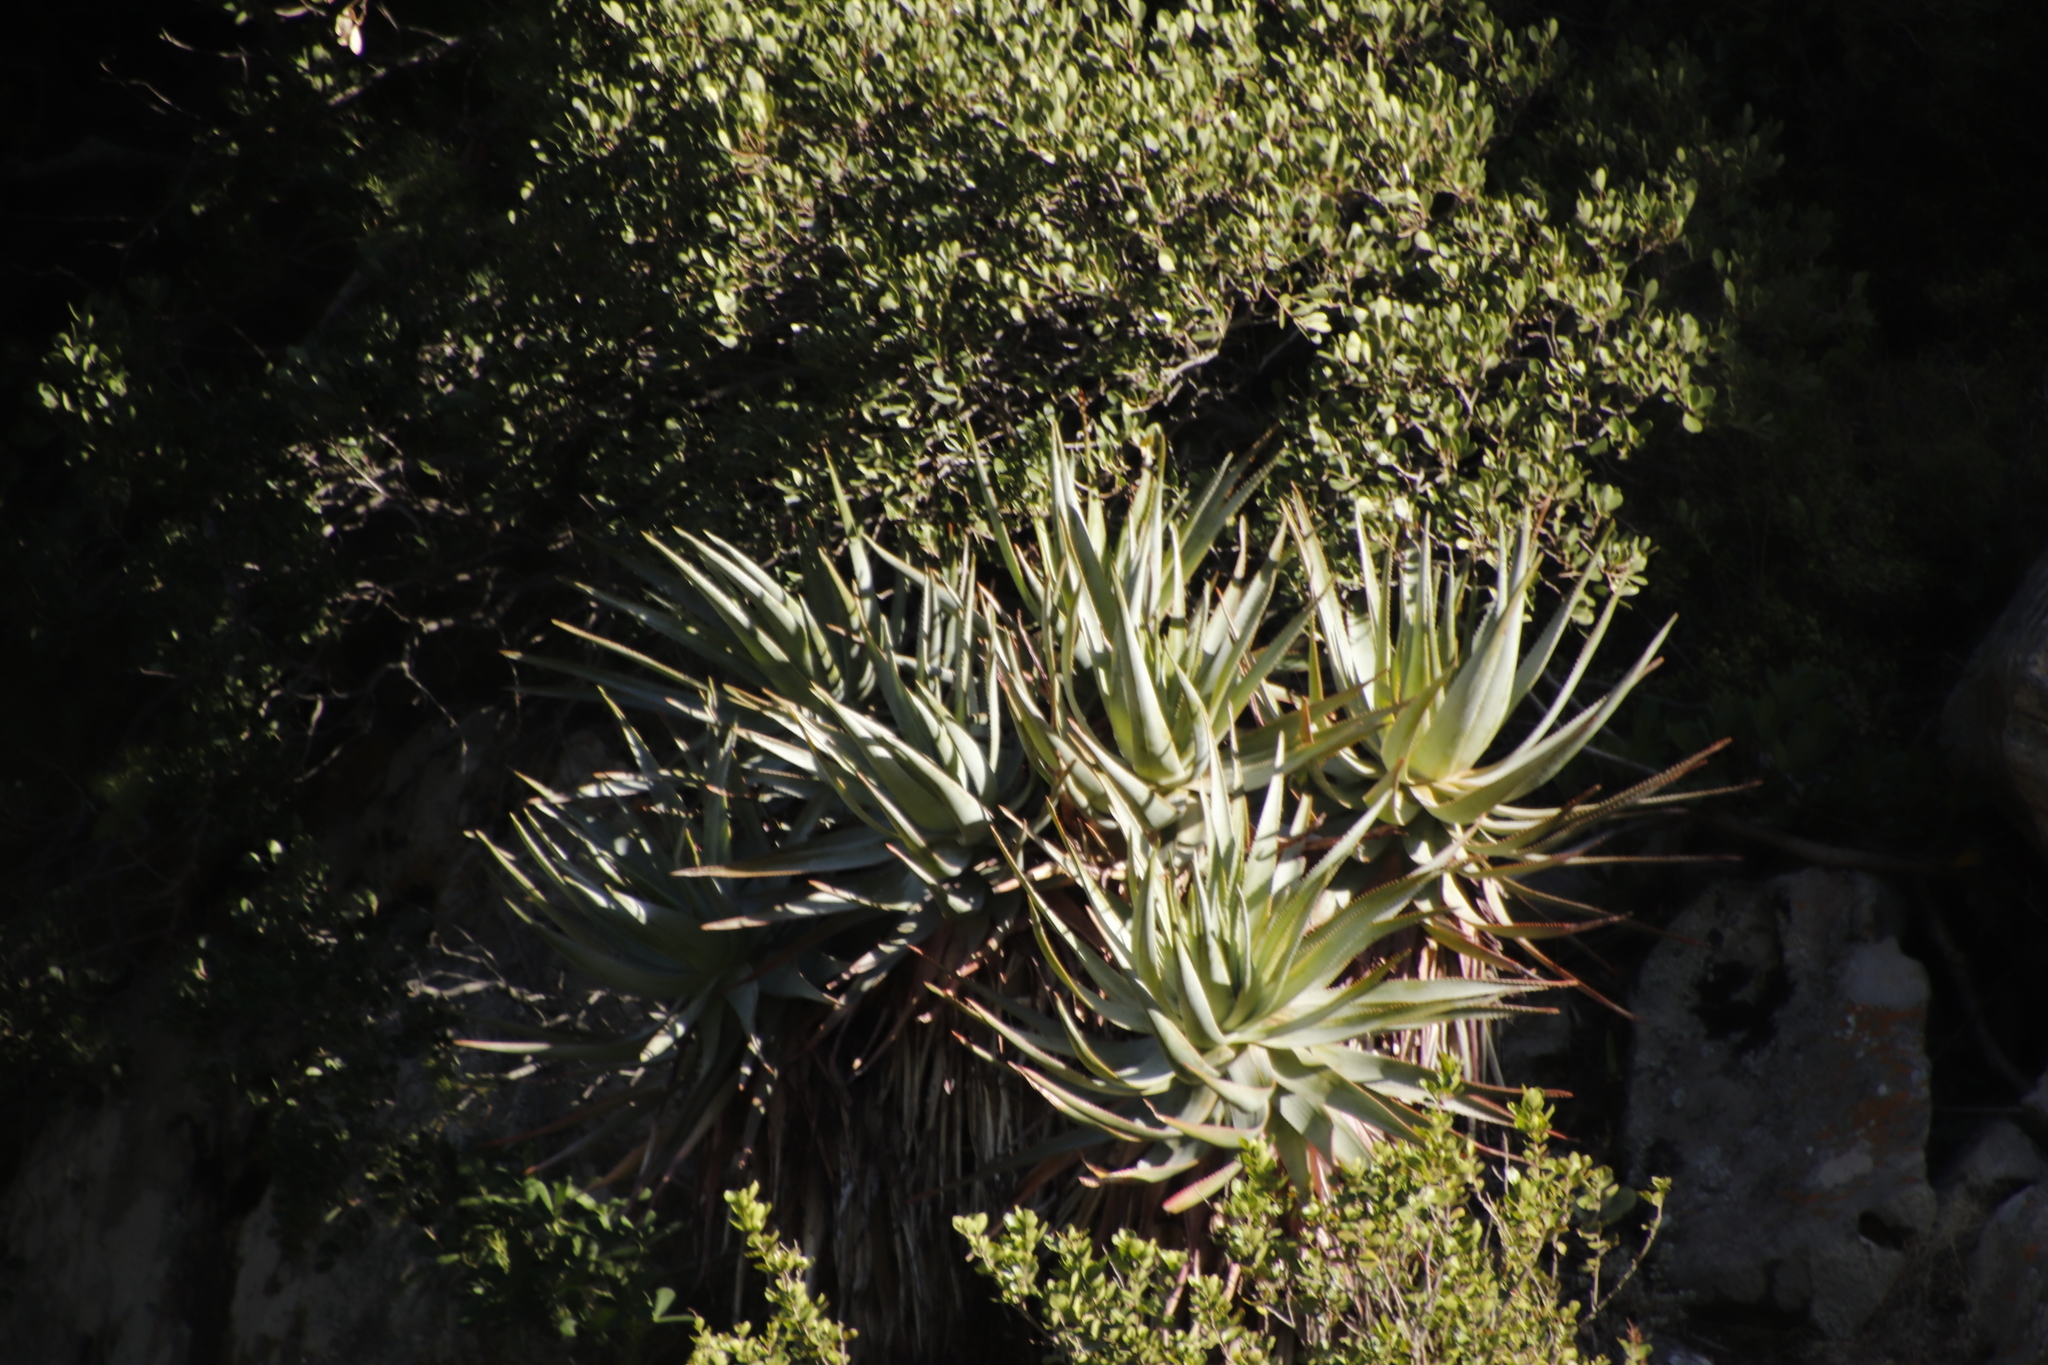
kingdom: Plantae
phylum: Tracheophyta
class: Liliopsida
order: Asparagales
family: Asphodelaceae
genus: Aloe
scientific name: Aloe succotrina
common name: Bombay aloe
